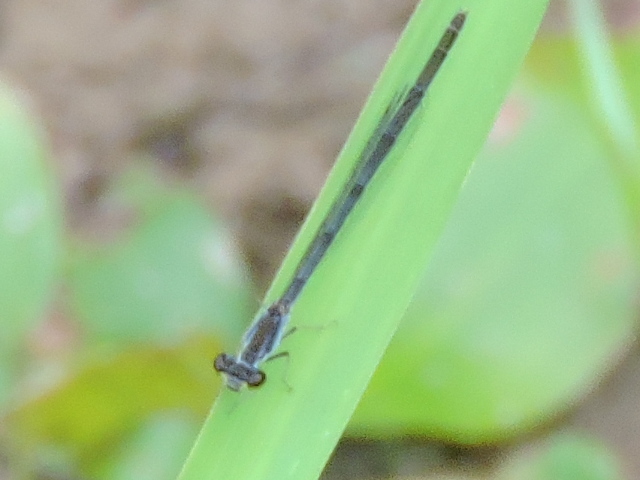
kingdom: Animalia
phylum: Arthropoda
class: Insecta
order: Odonata
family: Coenagrionidae
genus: Ischnura
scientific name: Ischnura posita
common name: Fragile forktail
